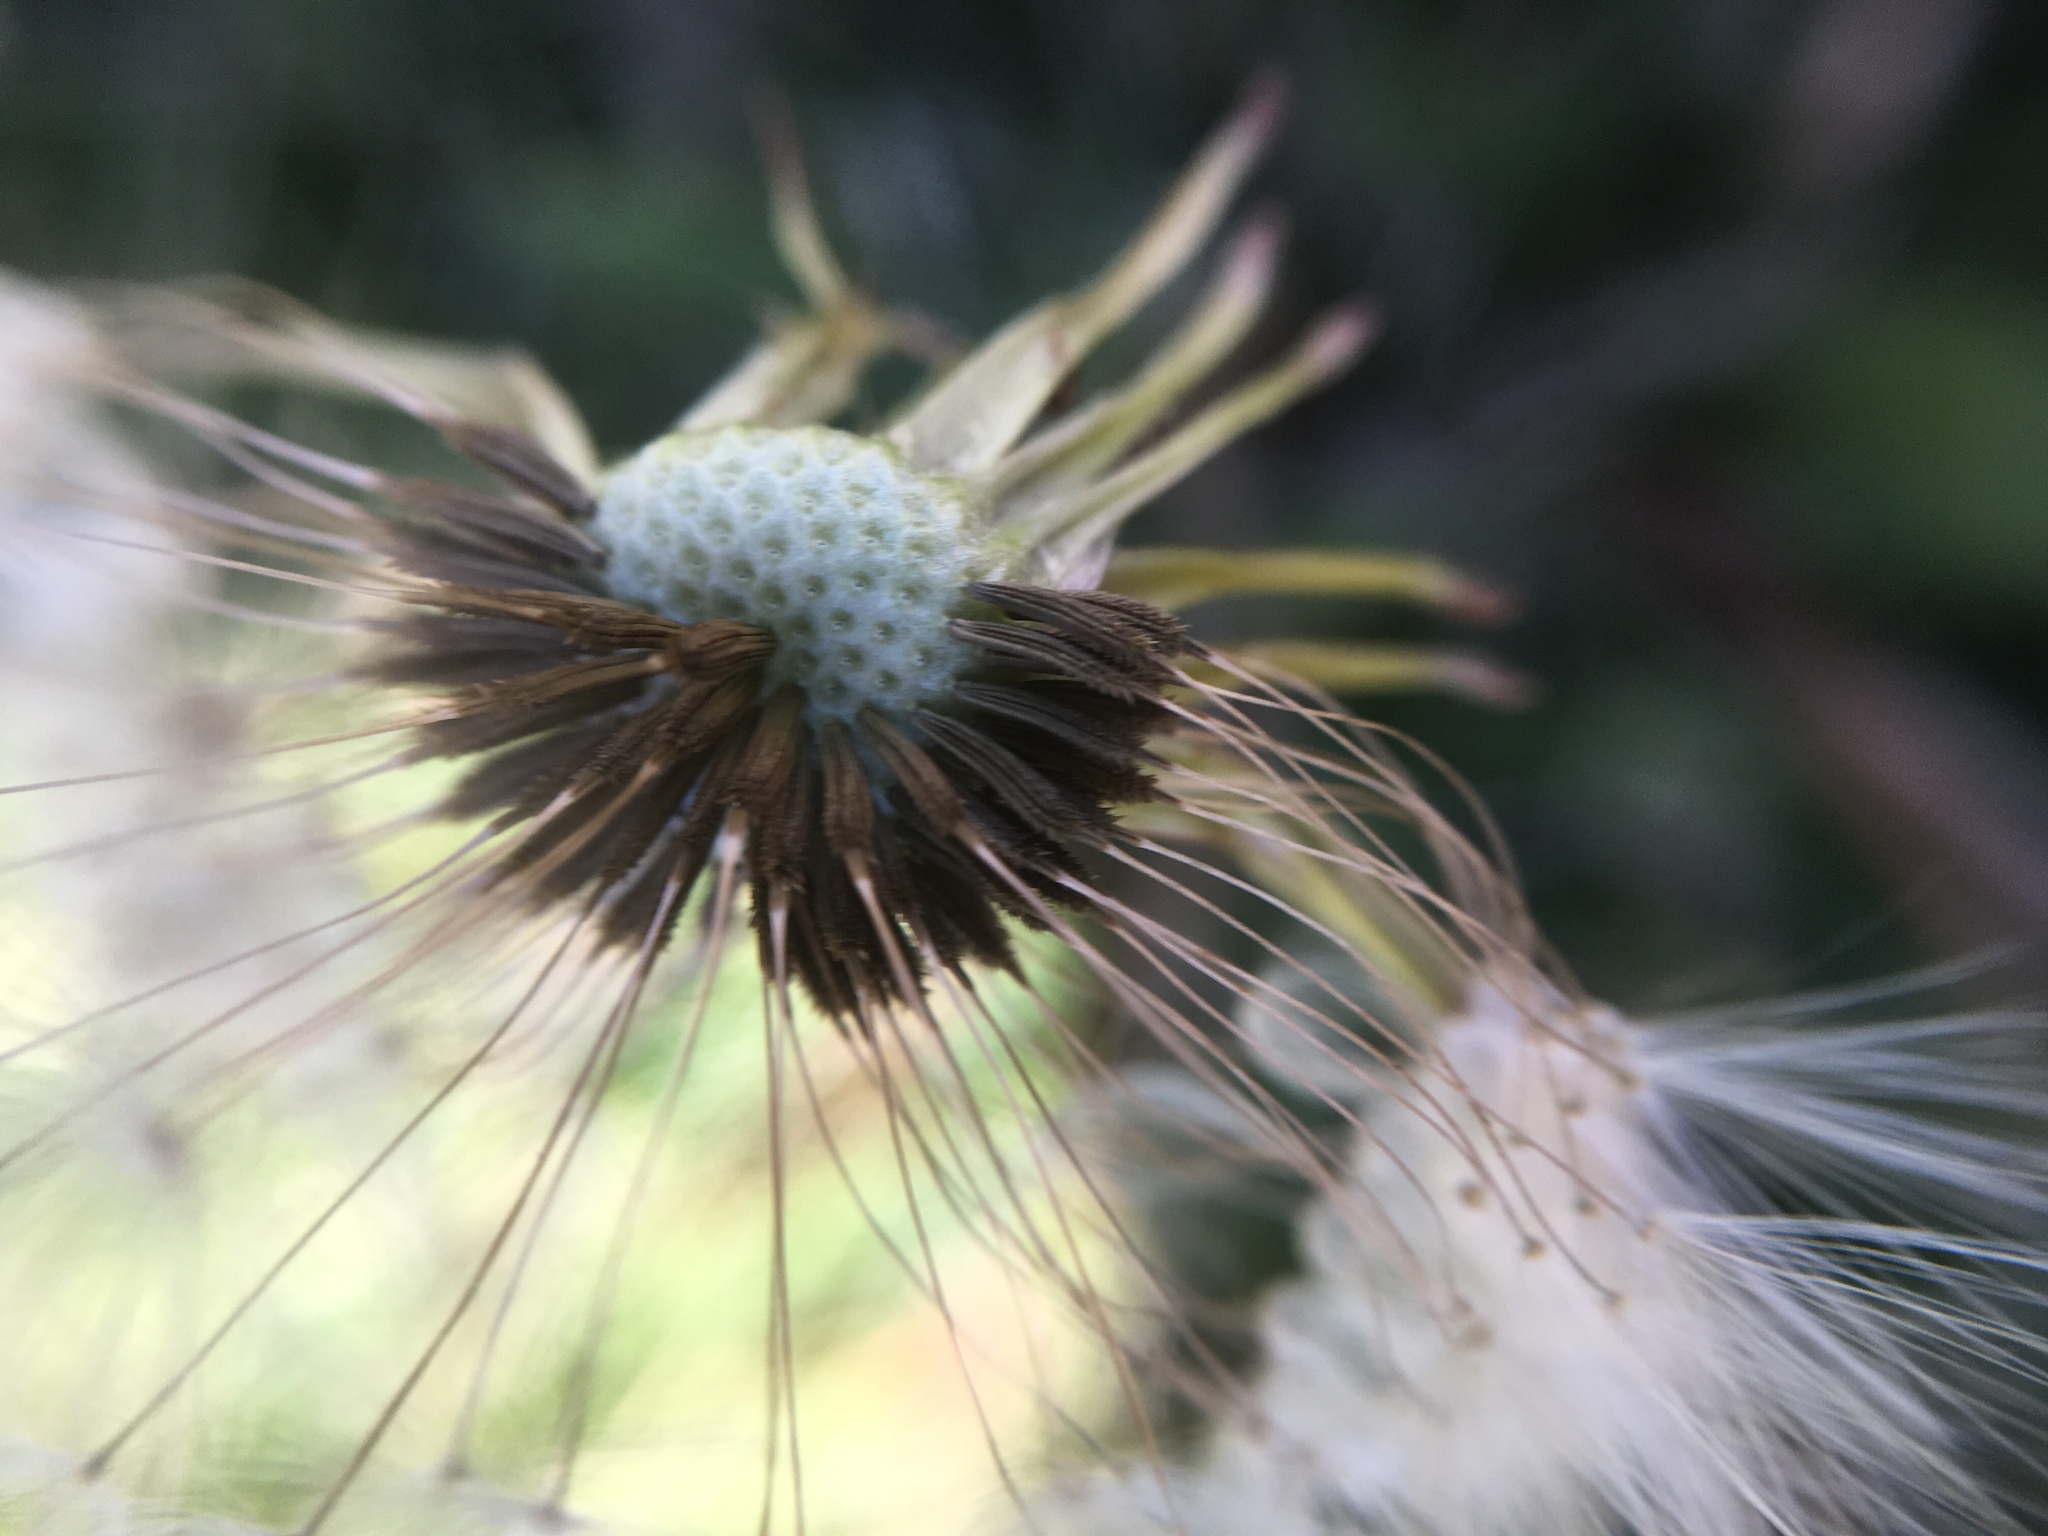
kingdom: Plantae
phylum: Tracheophyta
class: Magnoliopsida
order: Asterales
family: Asteraceae
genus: Taraxacum
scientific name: Taraxacum officinale
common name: Common dandelion
